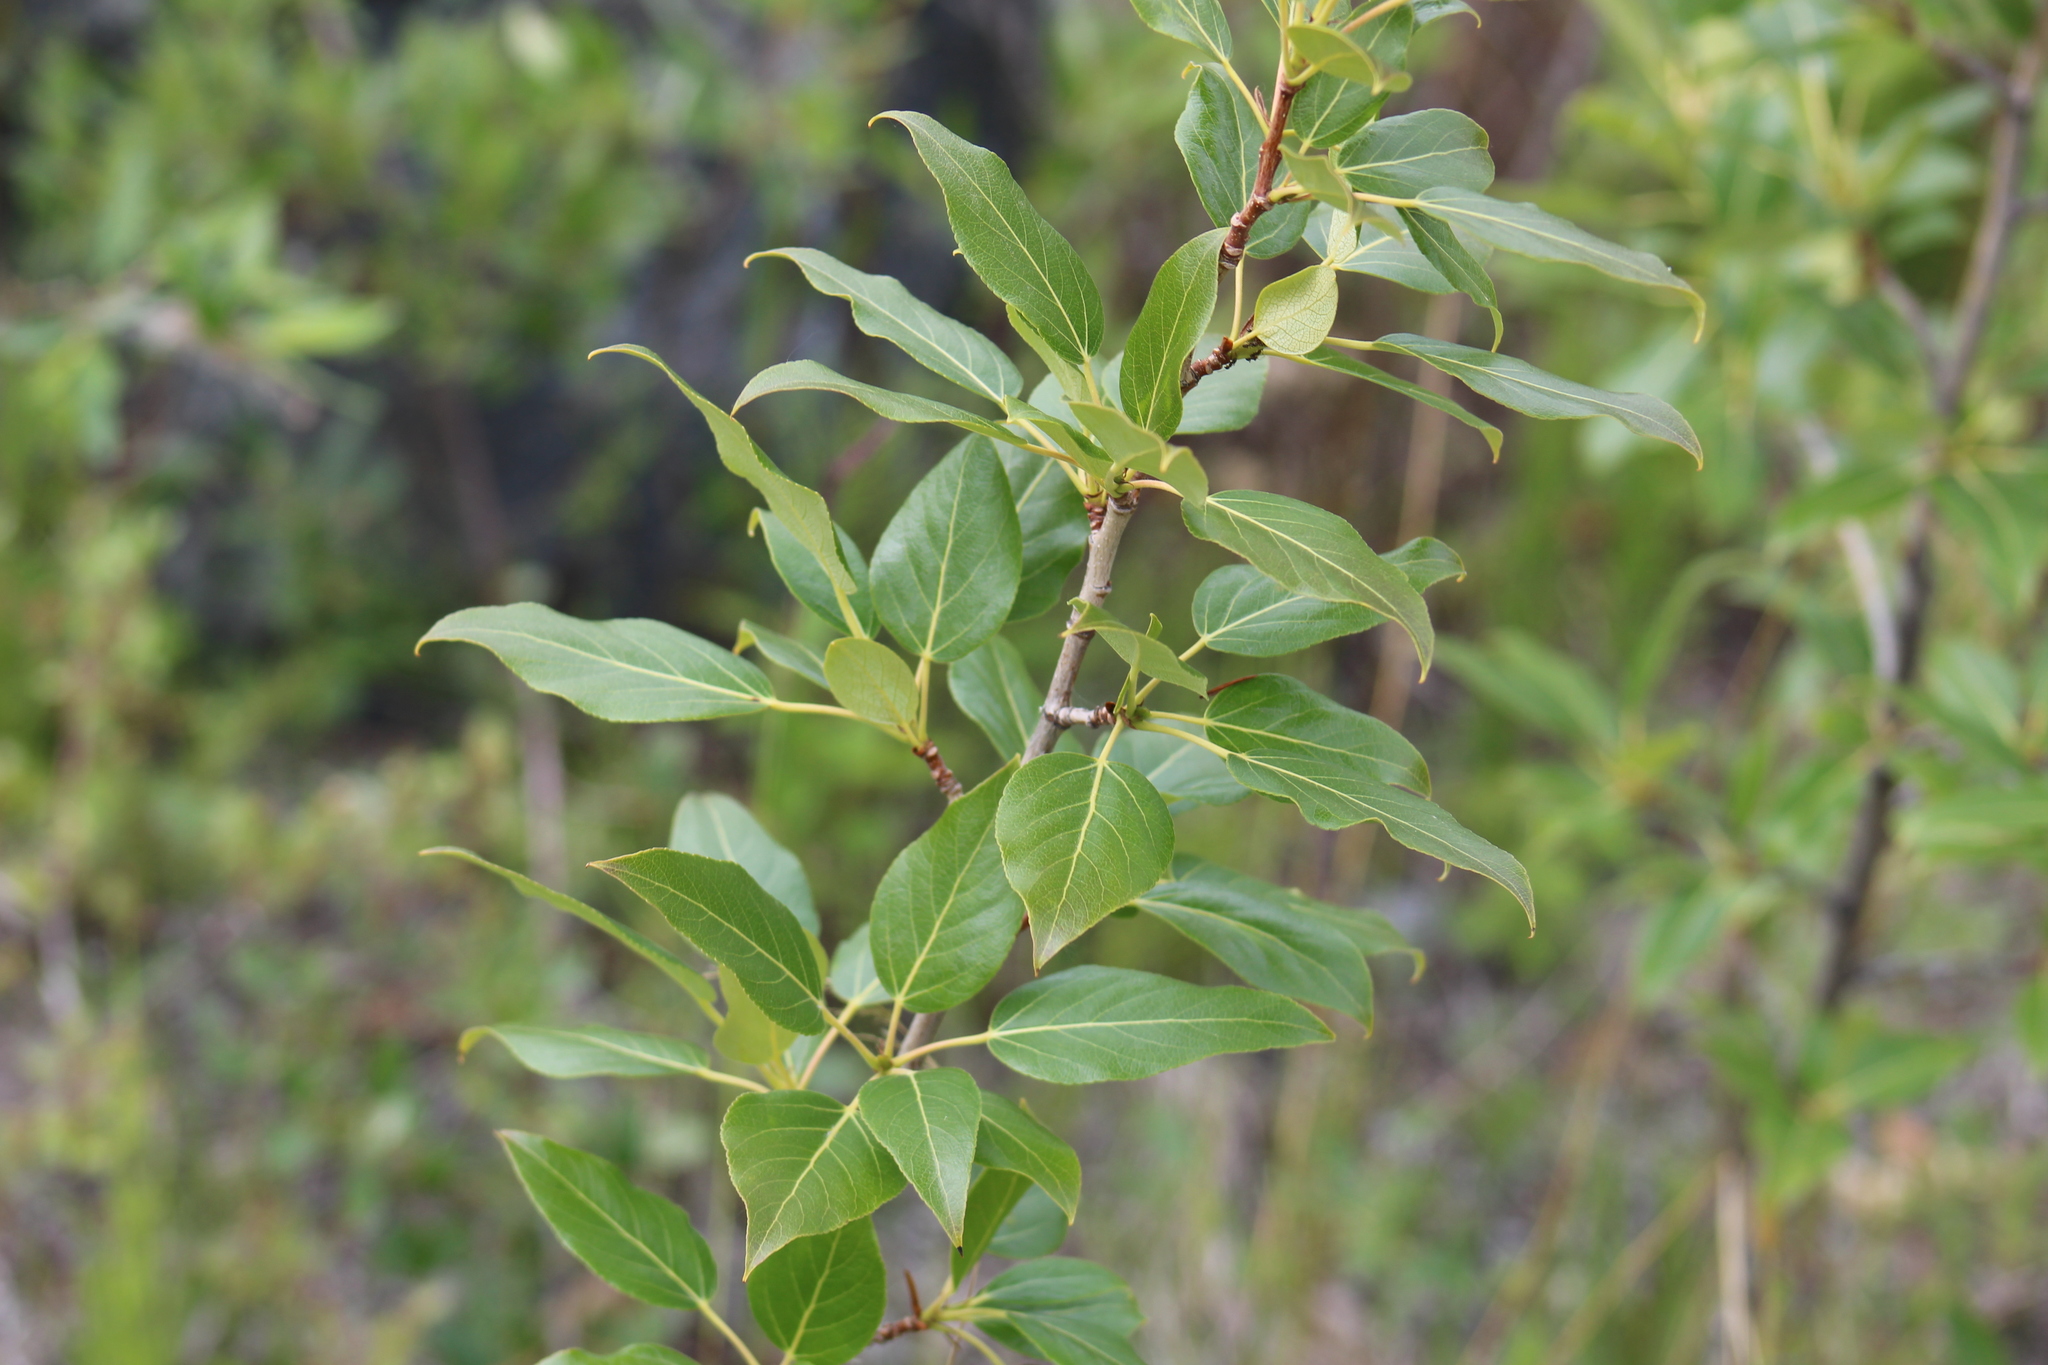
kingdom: Plantae
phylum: Tracheophyta
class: Magnoliopsida
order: Malpighiales
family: Salicaceae
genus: Populus
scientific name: Populus balsamifera
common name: Balsam poplar
